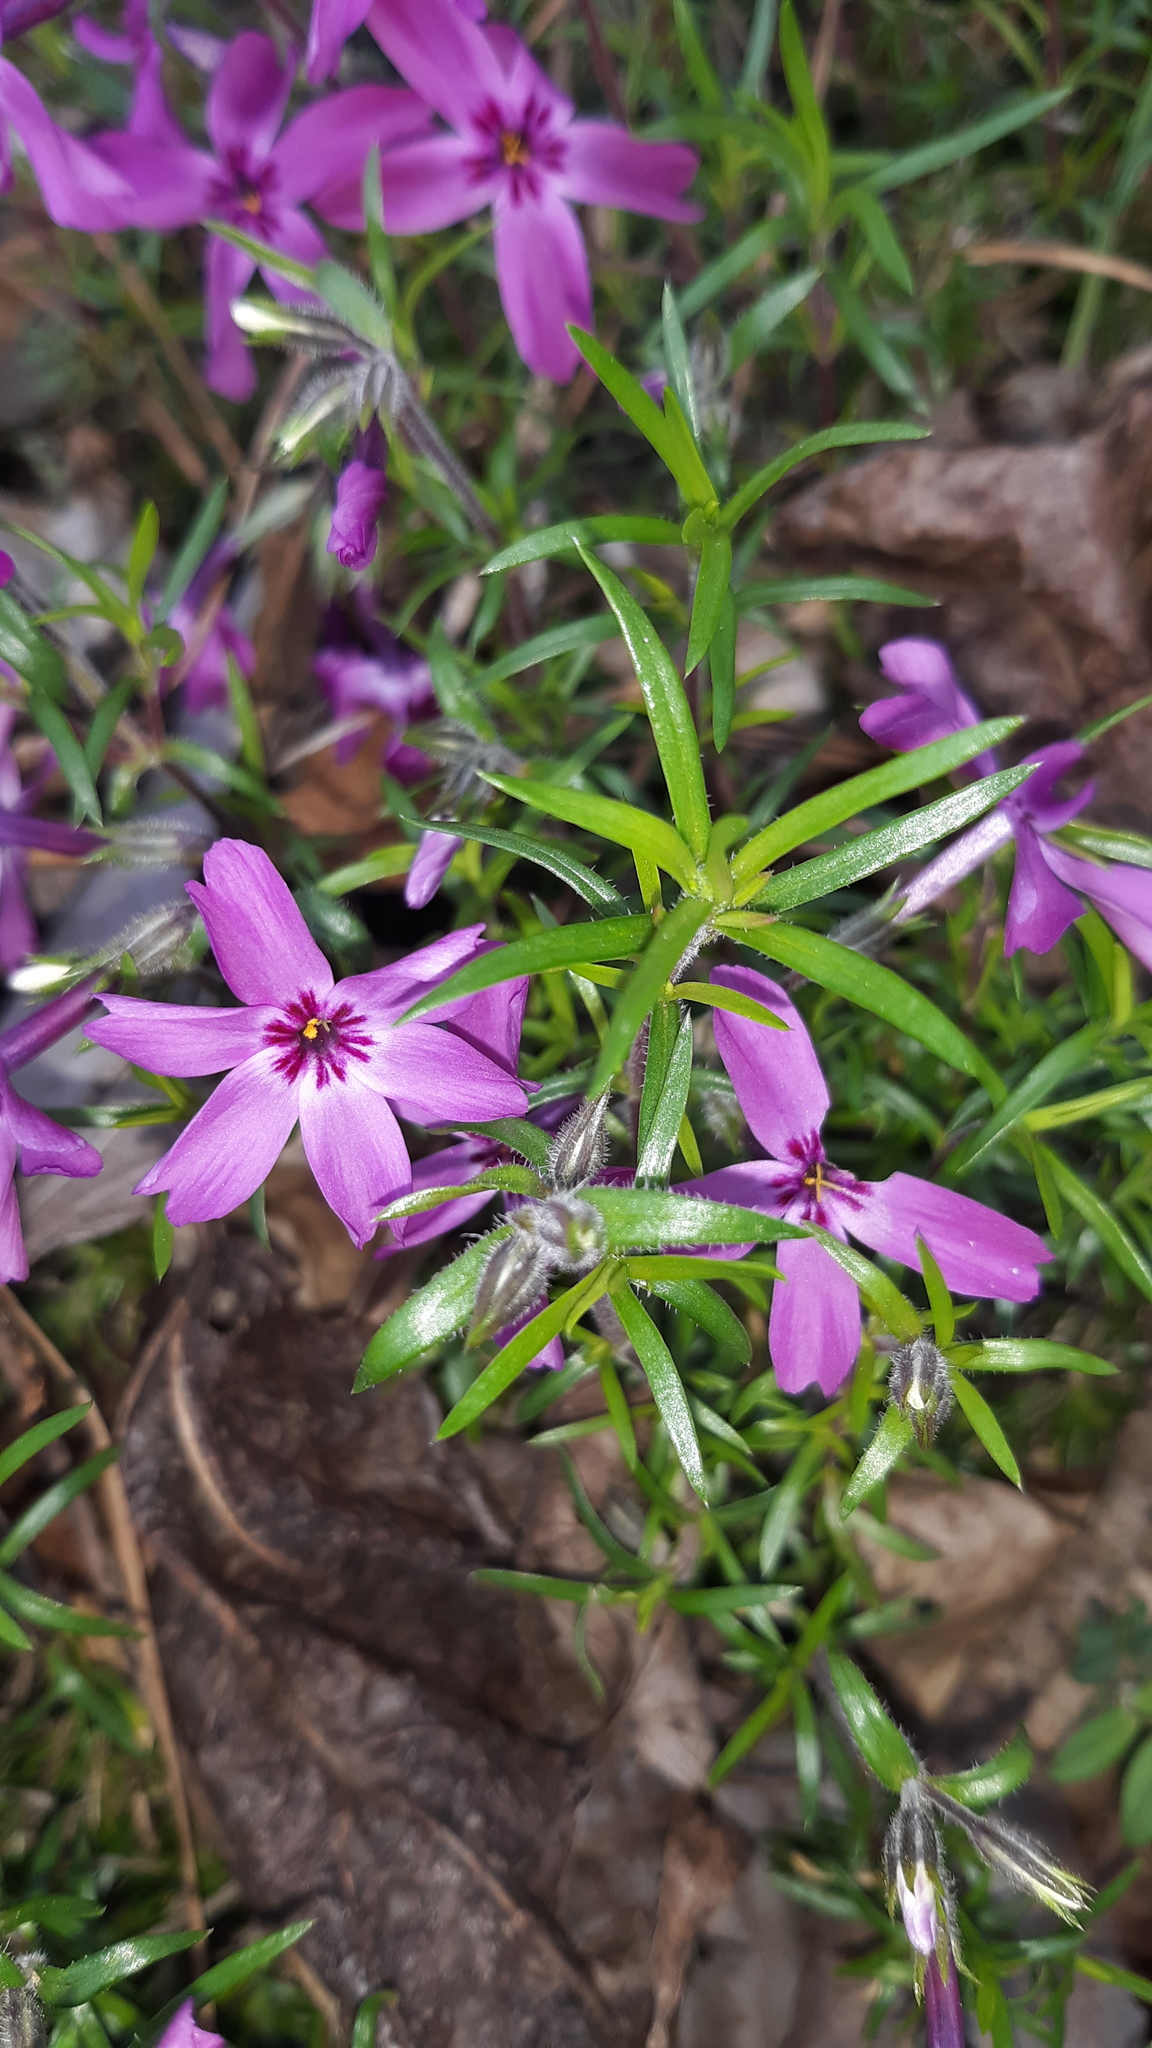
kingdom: Plantae
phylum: Tracheophyta
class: Magnoliopsida
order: Ericales
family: Polemoniaceae
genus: Phlox
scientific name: Phlox subulata
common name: Moss phlox
